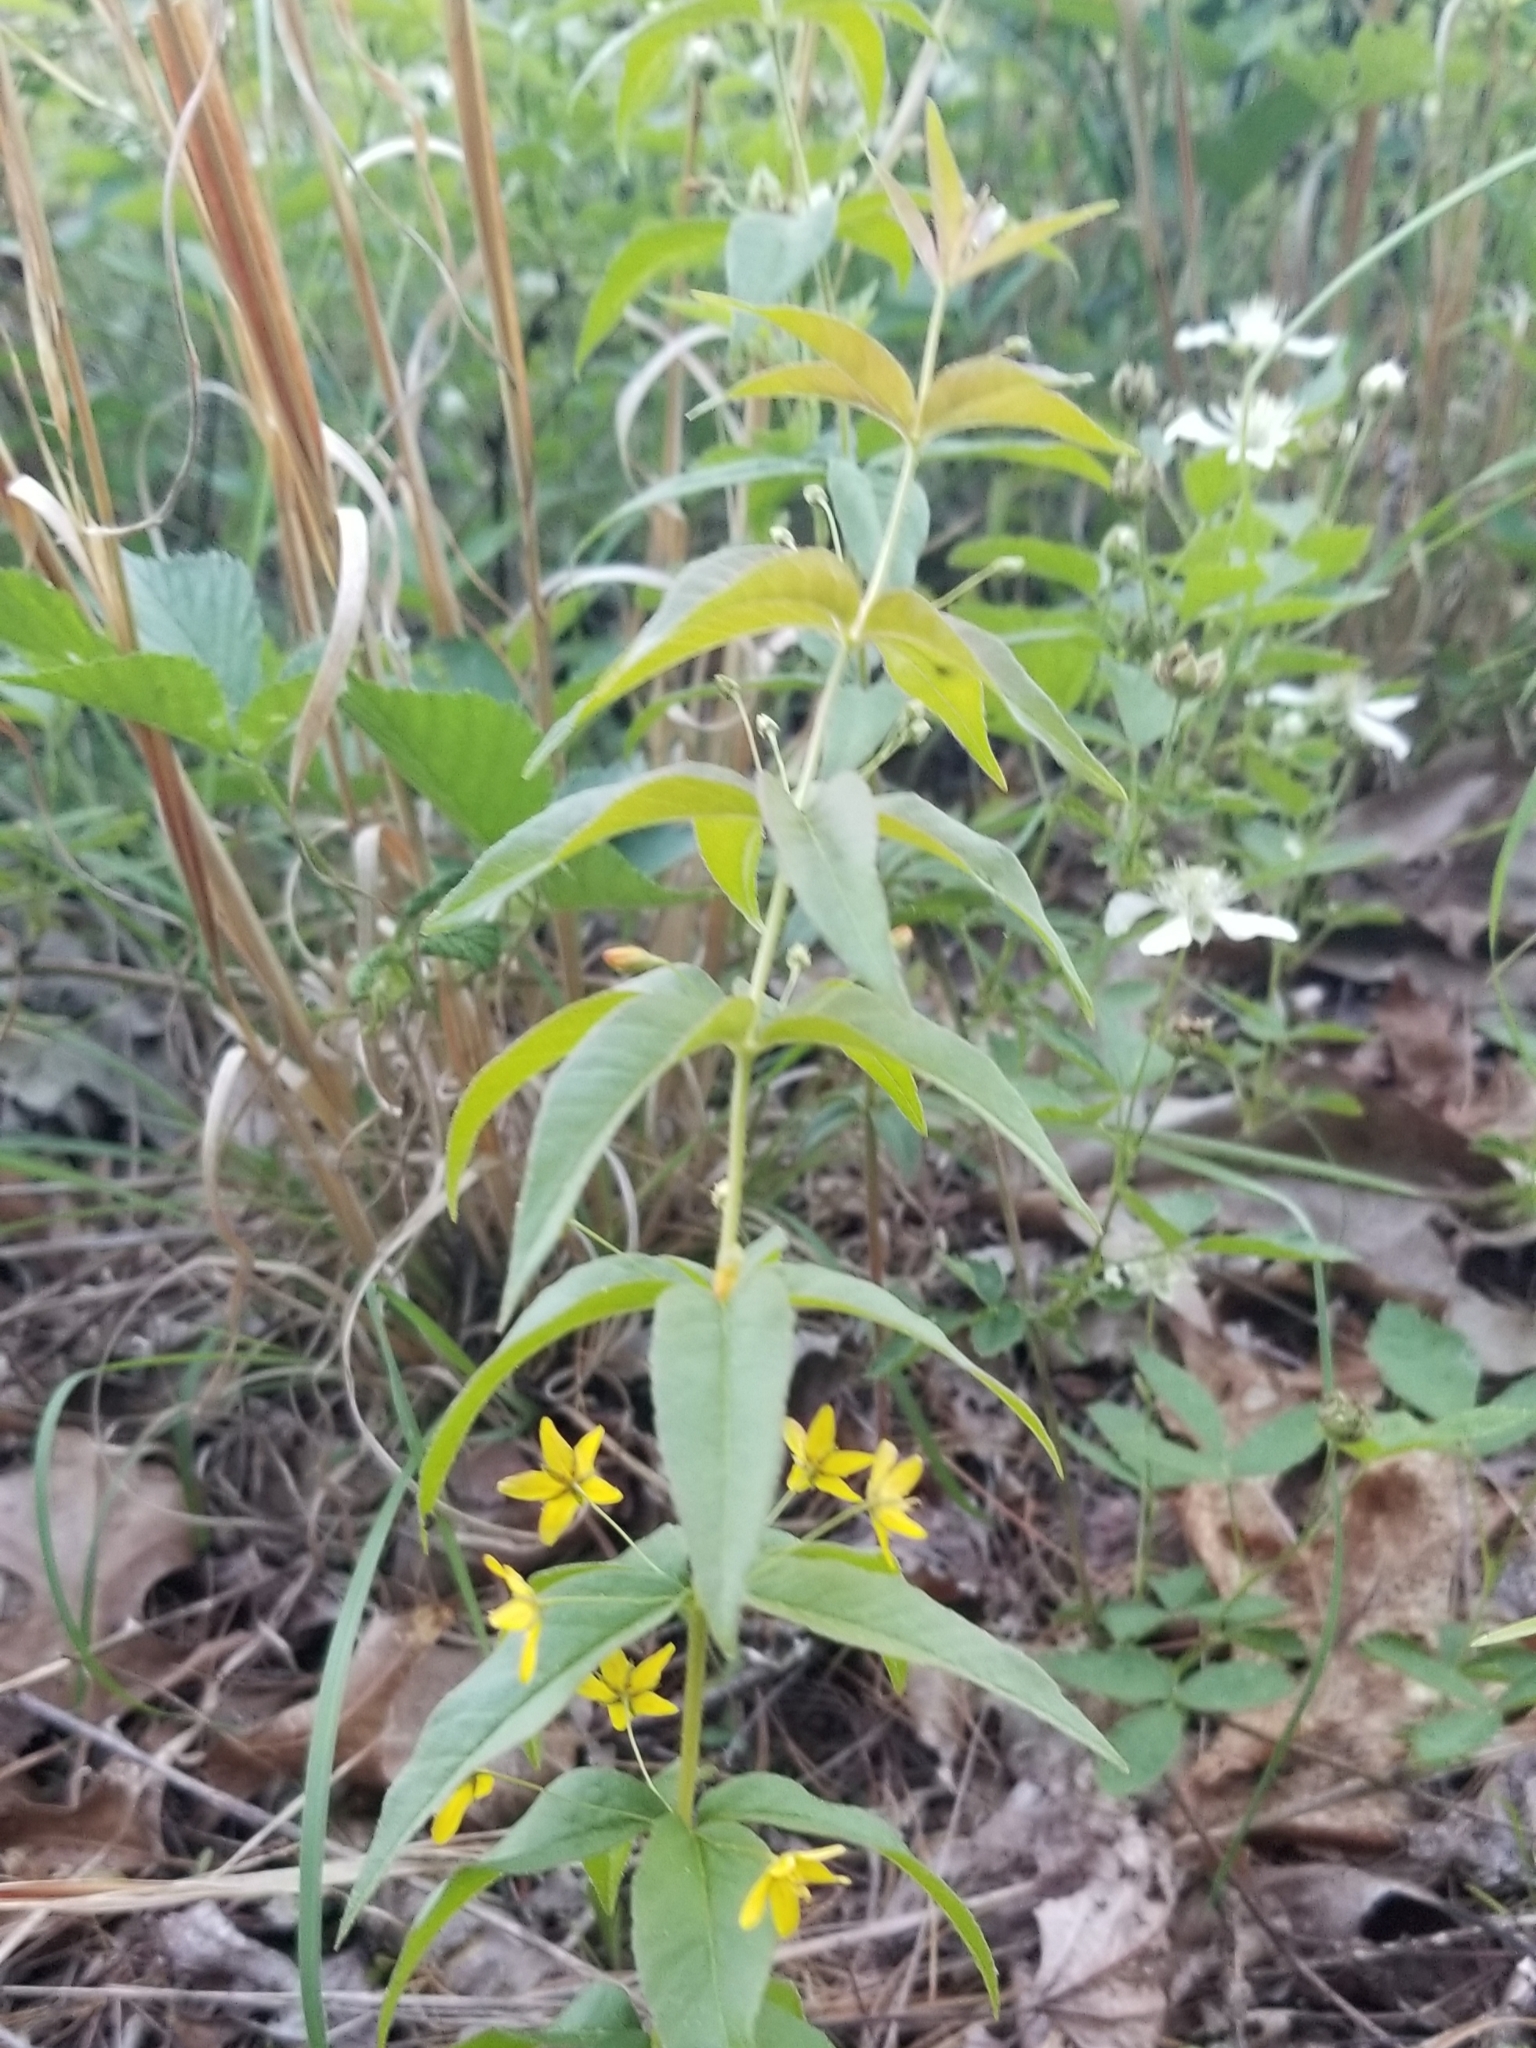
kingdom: Plantae
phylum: Tracheophyta
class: Magnoliopsida
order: Ericales
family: Primulaceae
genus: Lysimachia
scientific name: Lysimachia quadrifolia
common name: Whorled loosestrife
